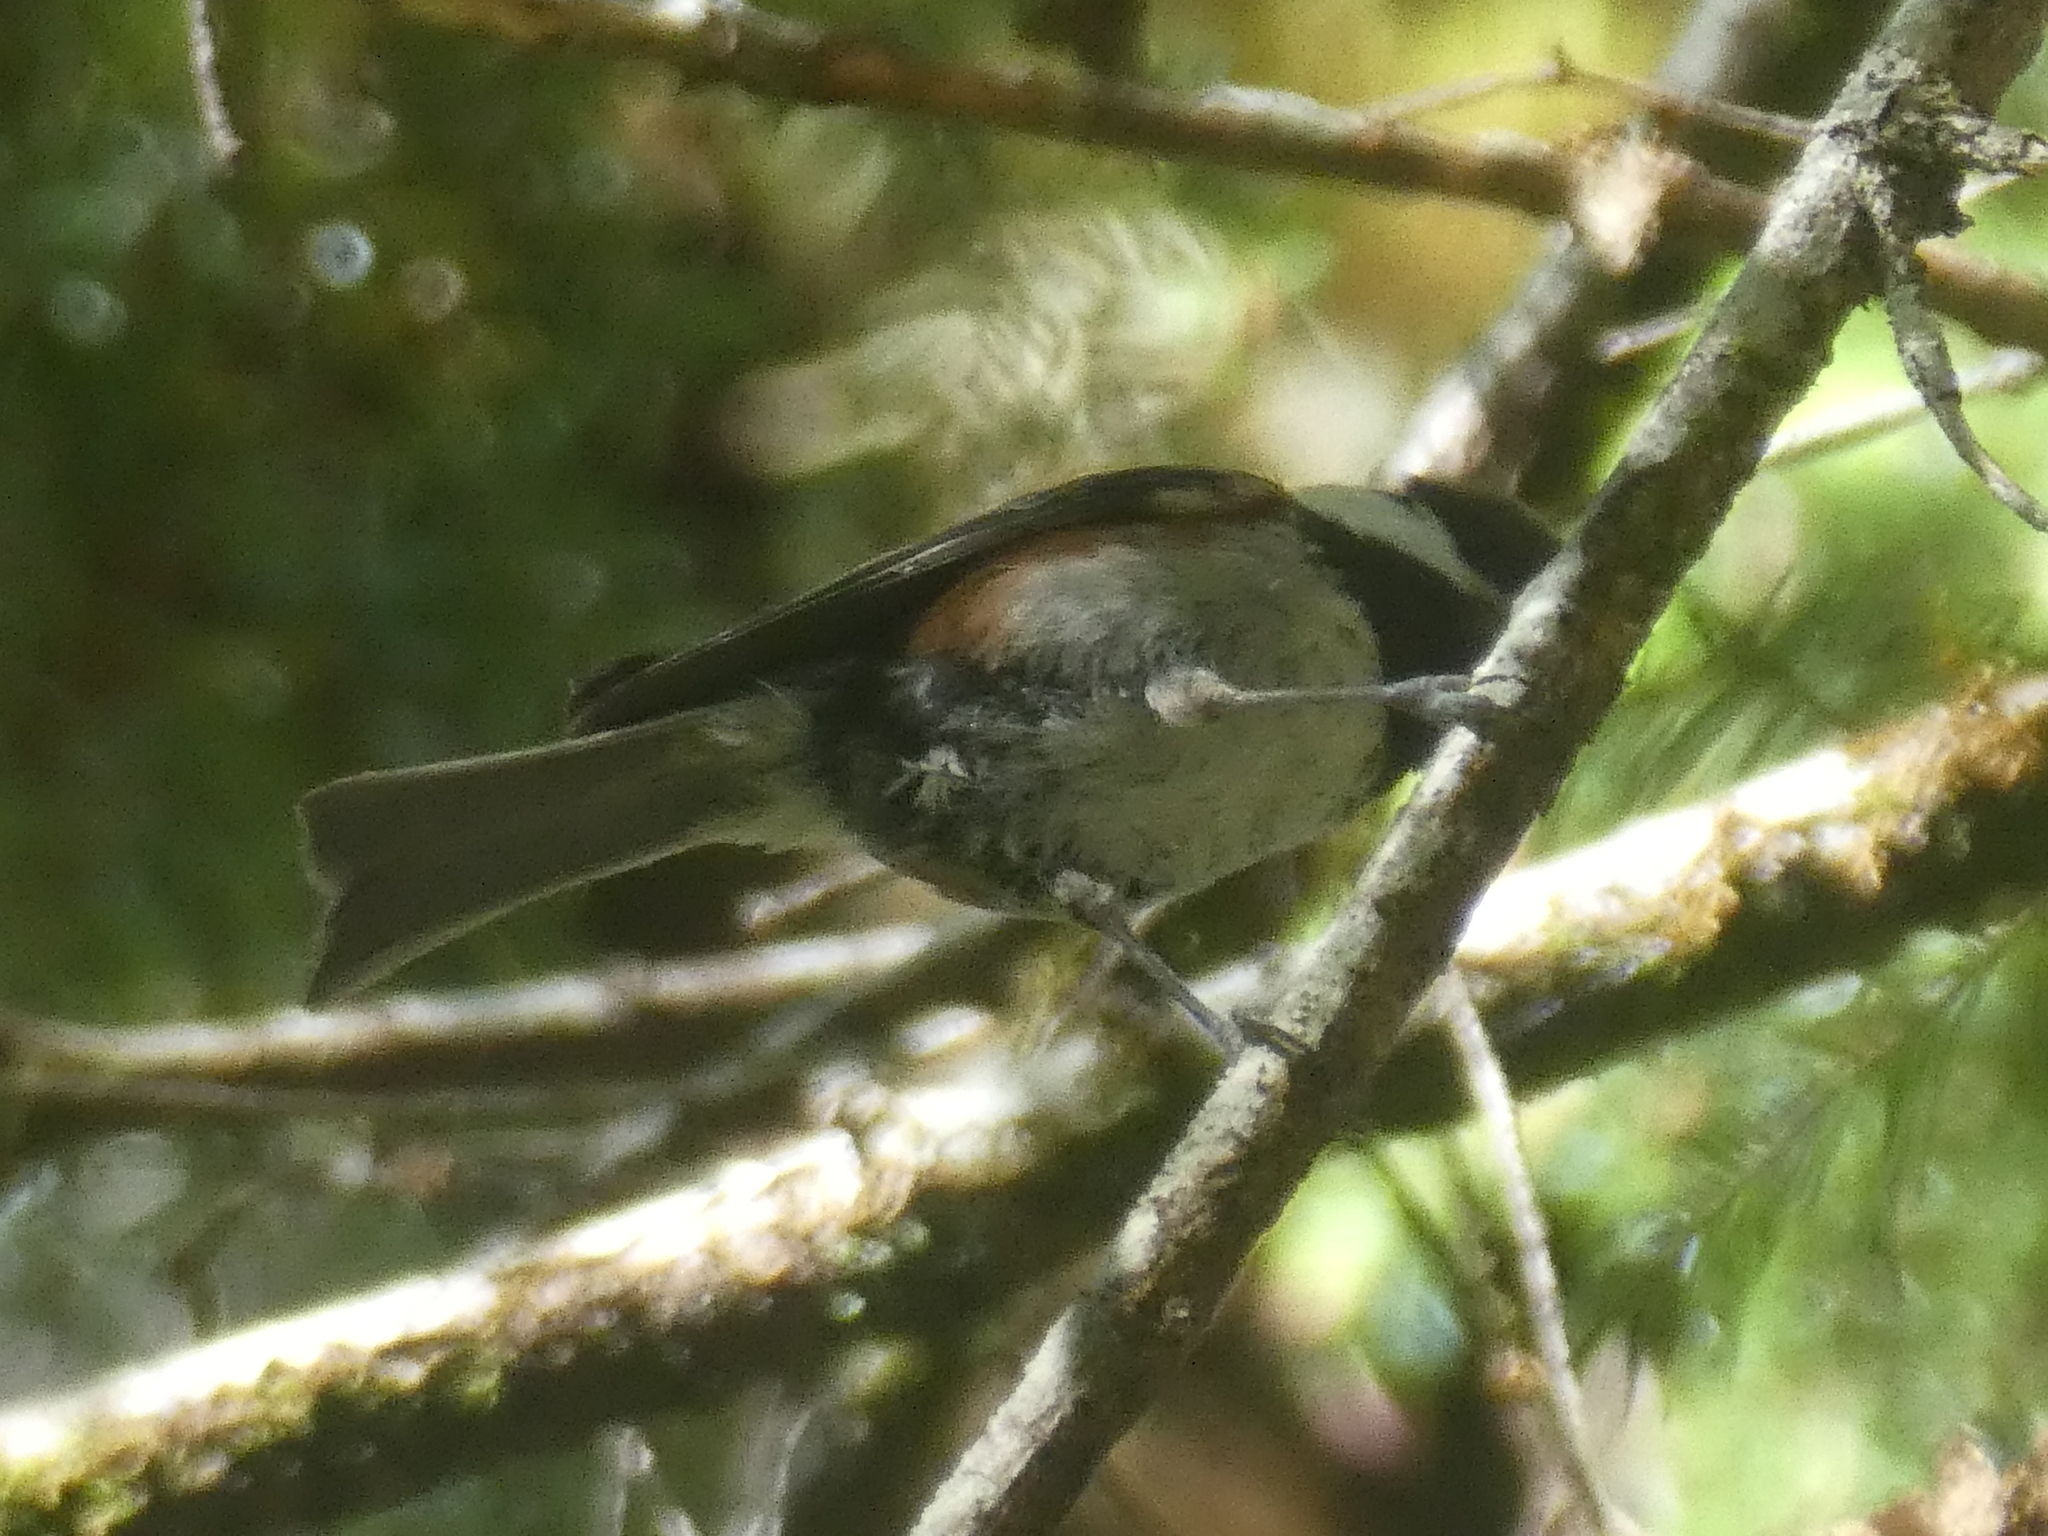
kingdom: Animalia
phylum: Chordata
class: Aves
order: Passeriformes
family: Paridae
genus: Poecile
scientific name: Poecile rufescens
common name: Chestnut-backed chickadee
